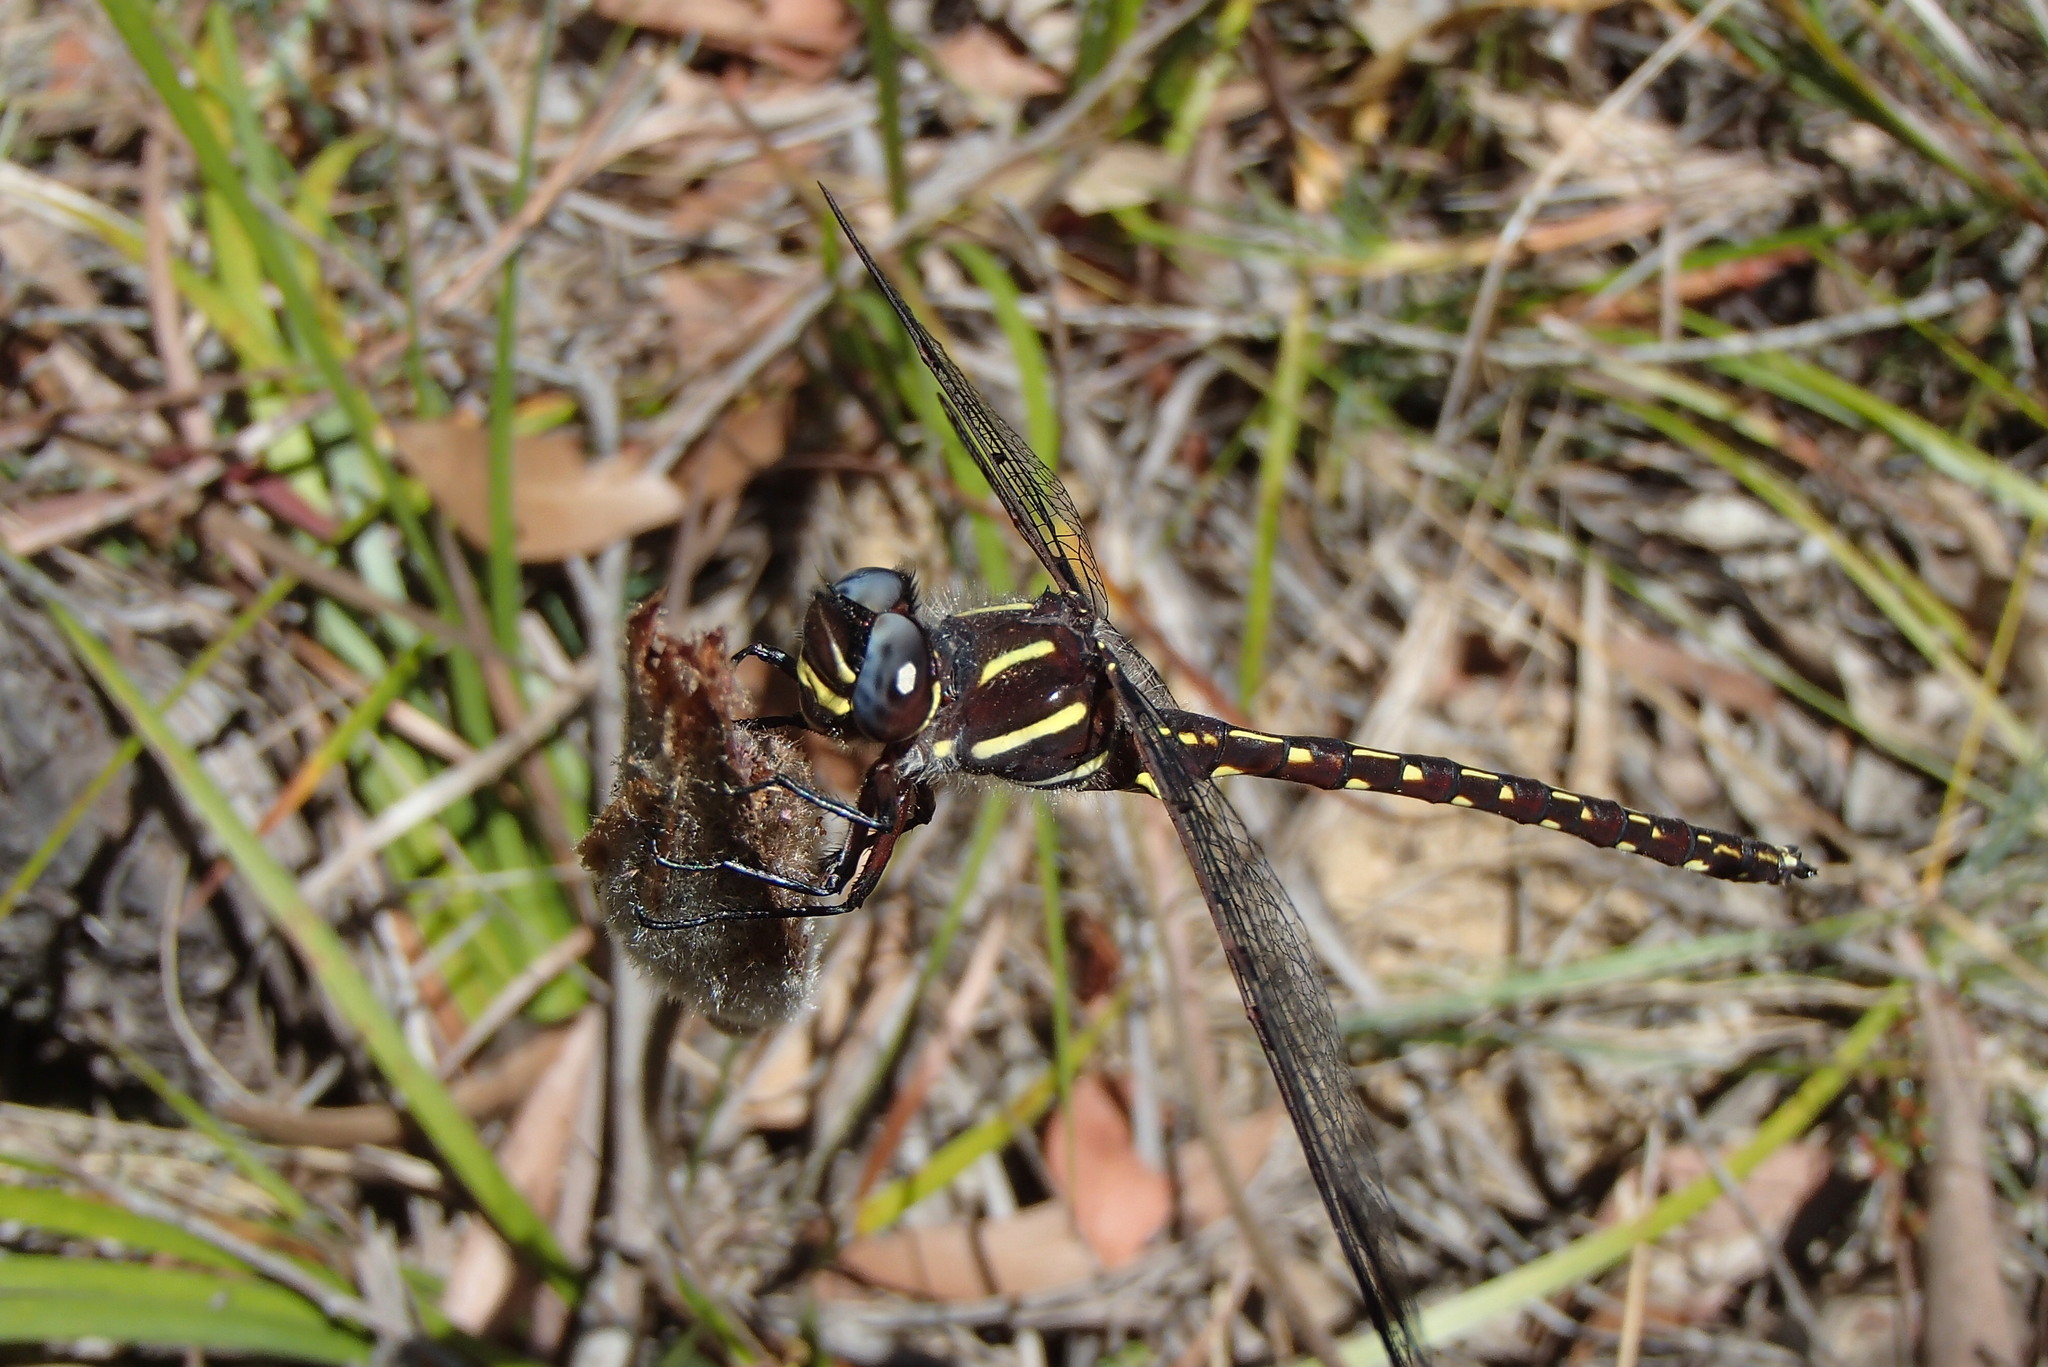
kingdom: Animalia
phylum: Arthropoda
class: Insecta
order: Odonata
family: Austropetaliidae
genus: Austropetalia
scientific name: Austropetalia patricia
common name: Waterfall redspot
